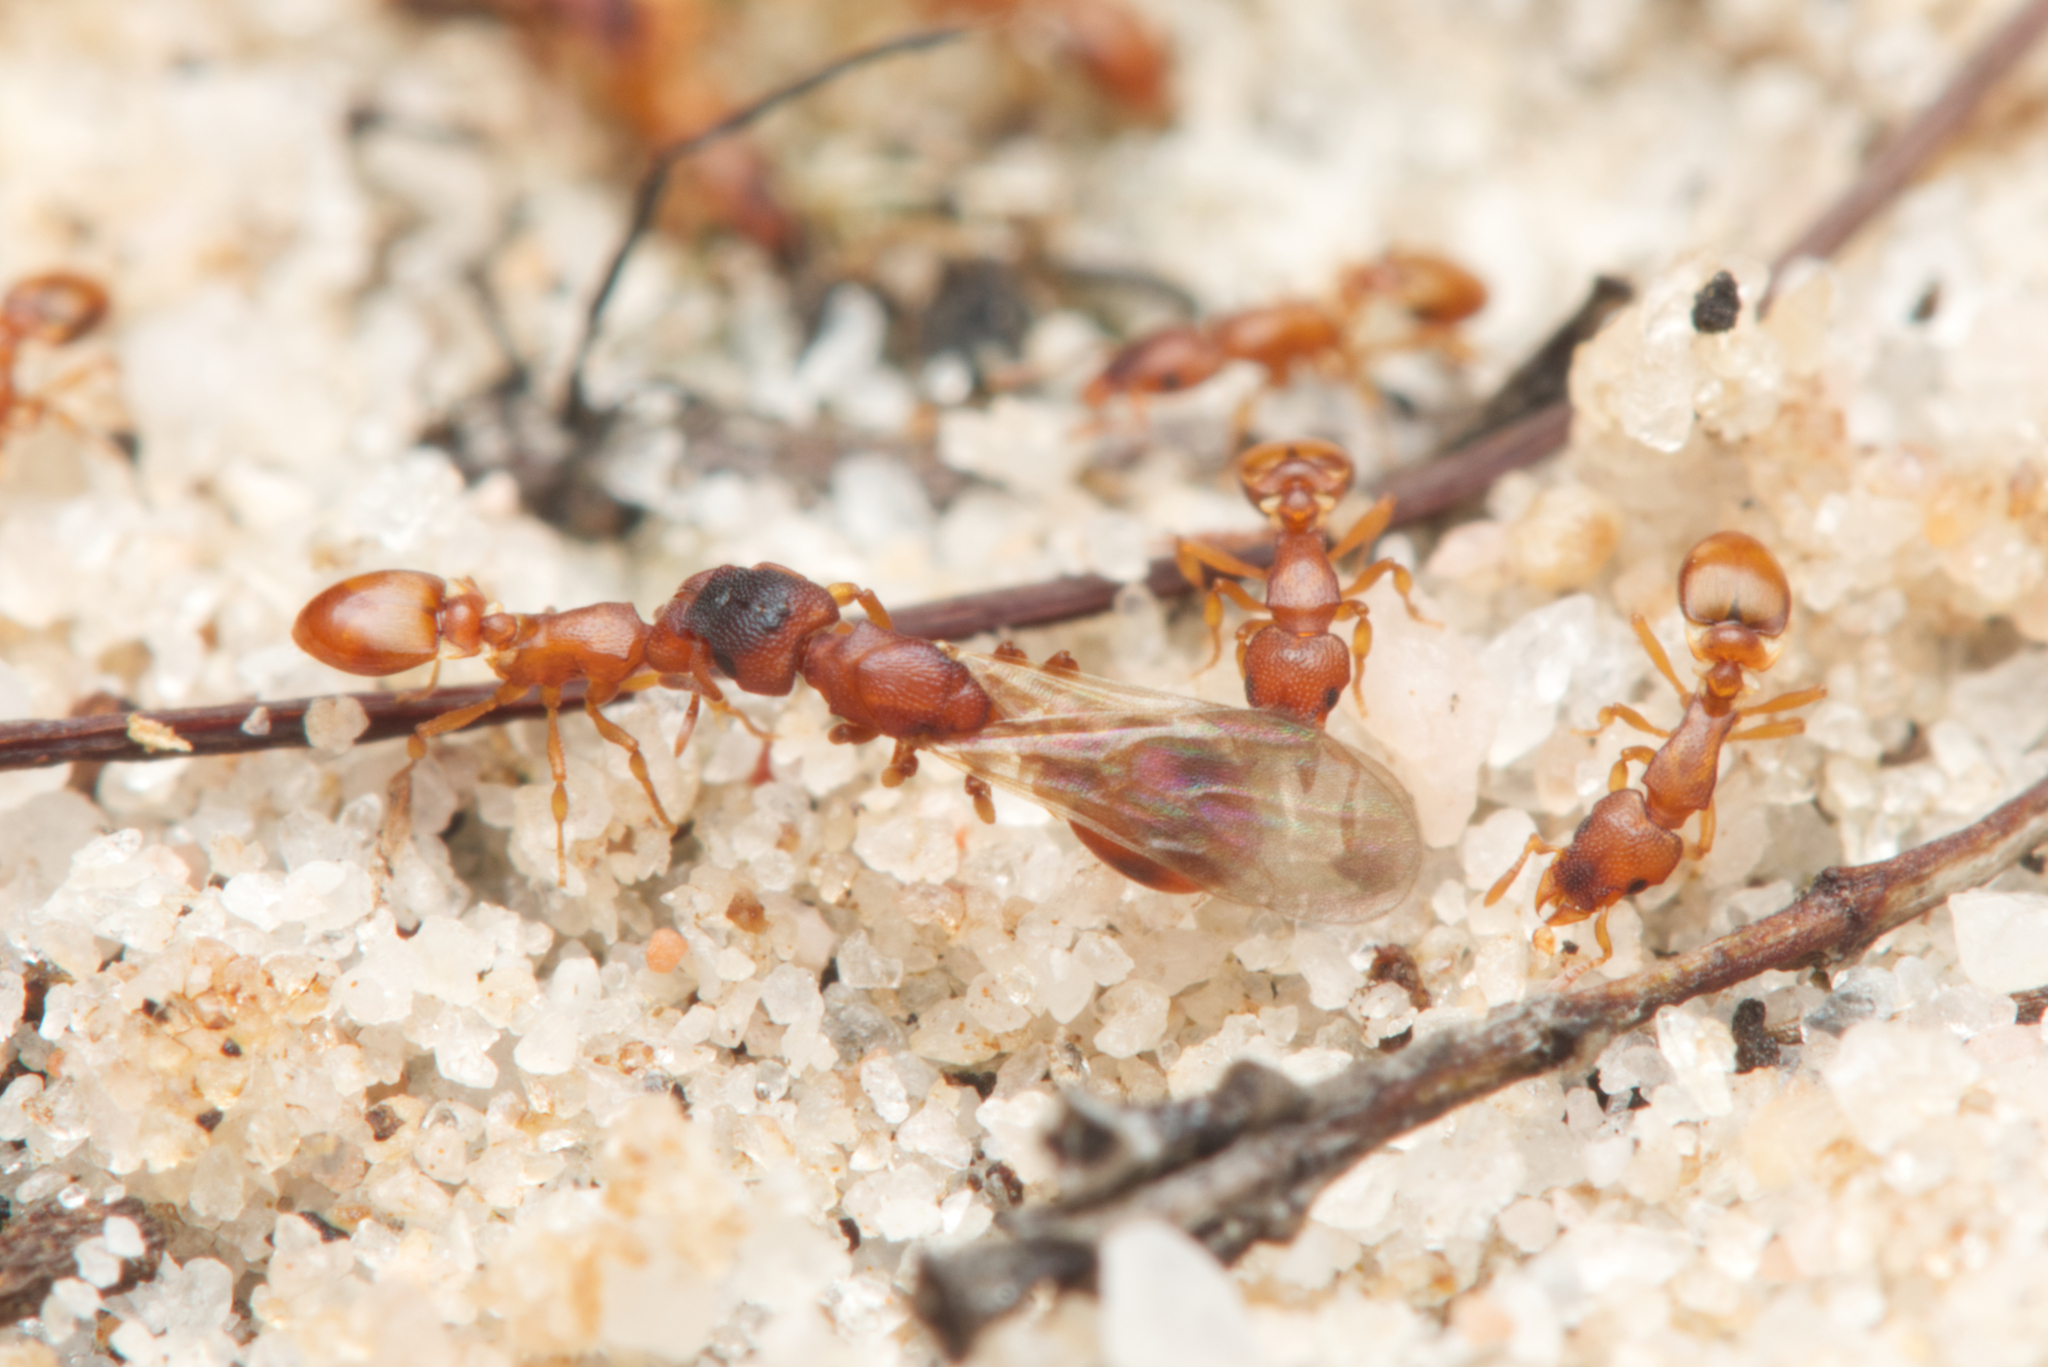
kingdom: Animalia
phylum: Arthropoda
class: Insecta
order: Hymenoptera
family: Formicidae
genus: Colobostruma
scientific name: Colobostruma
